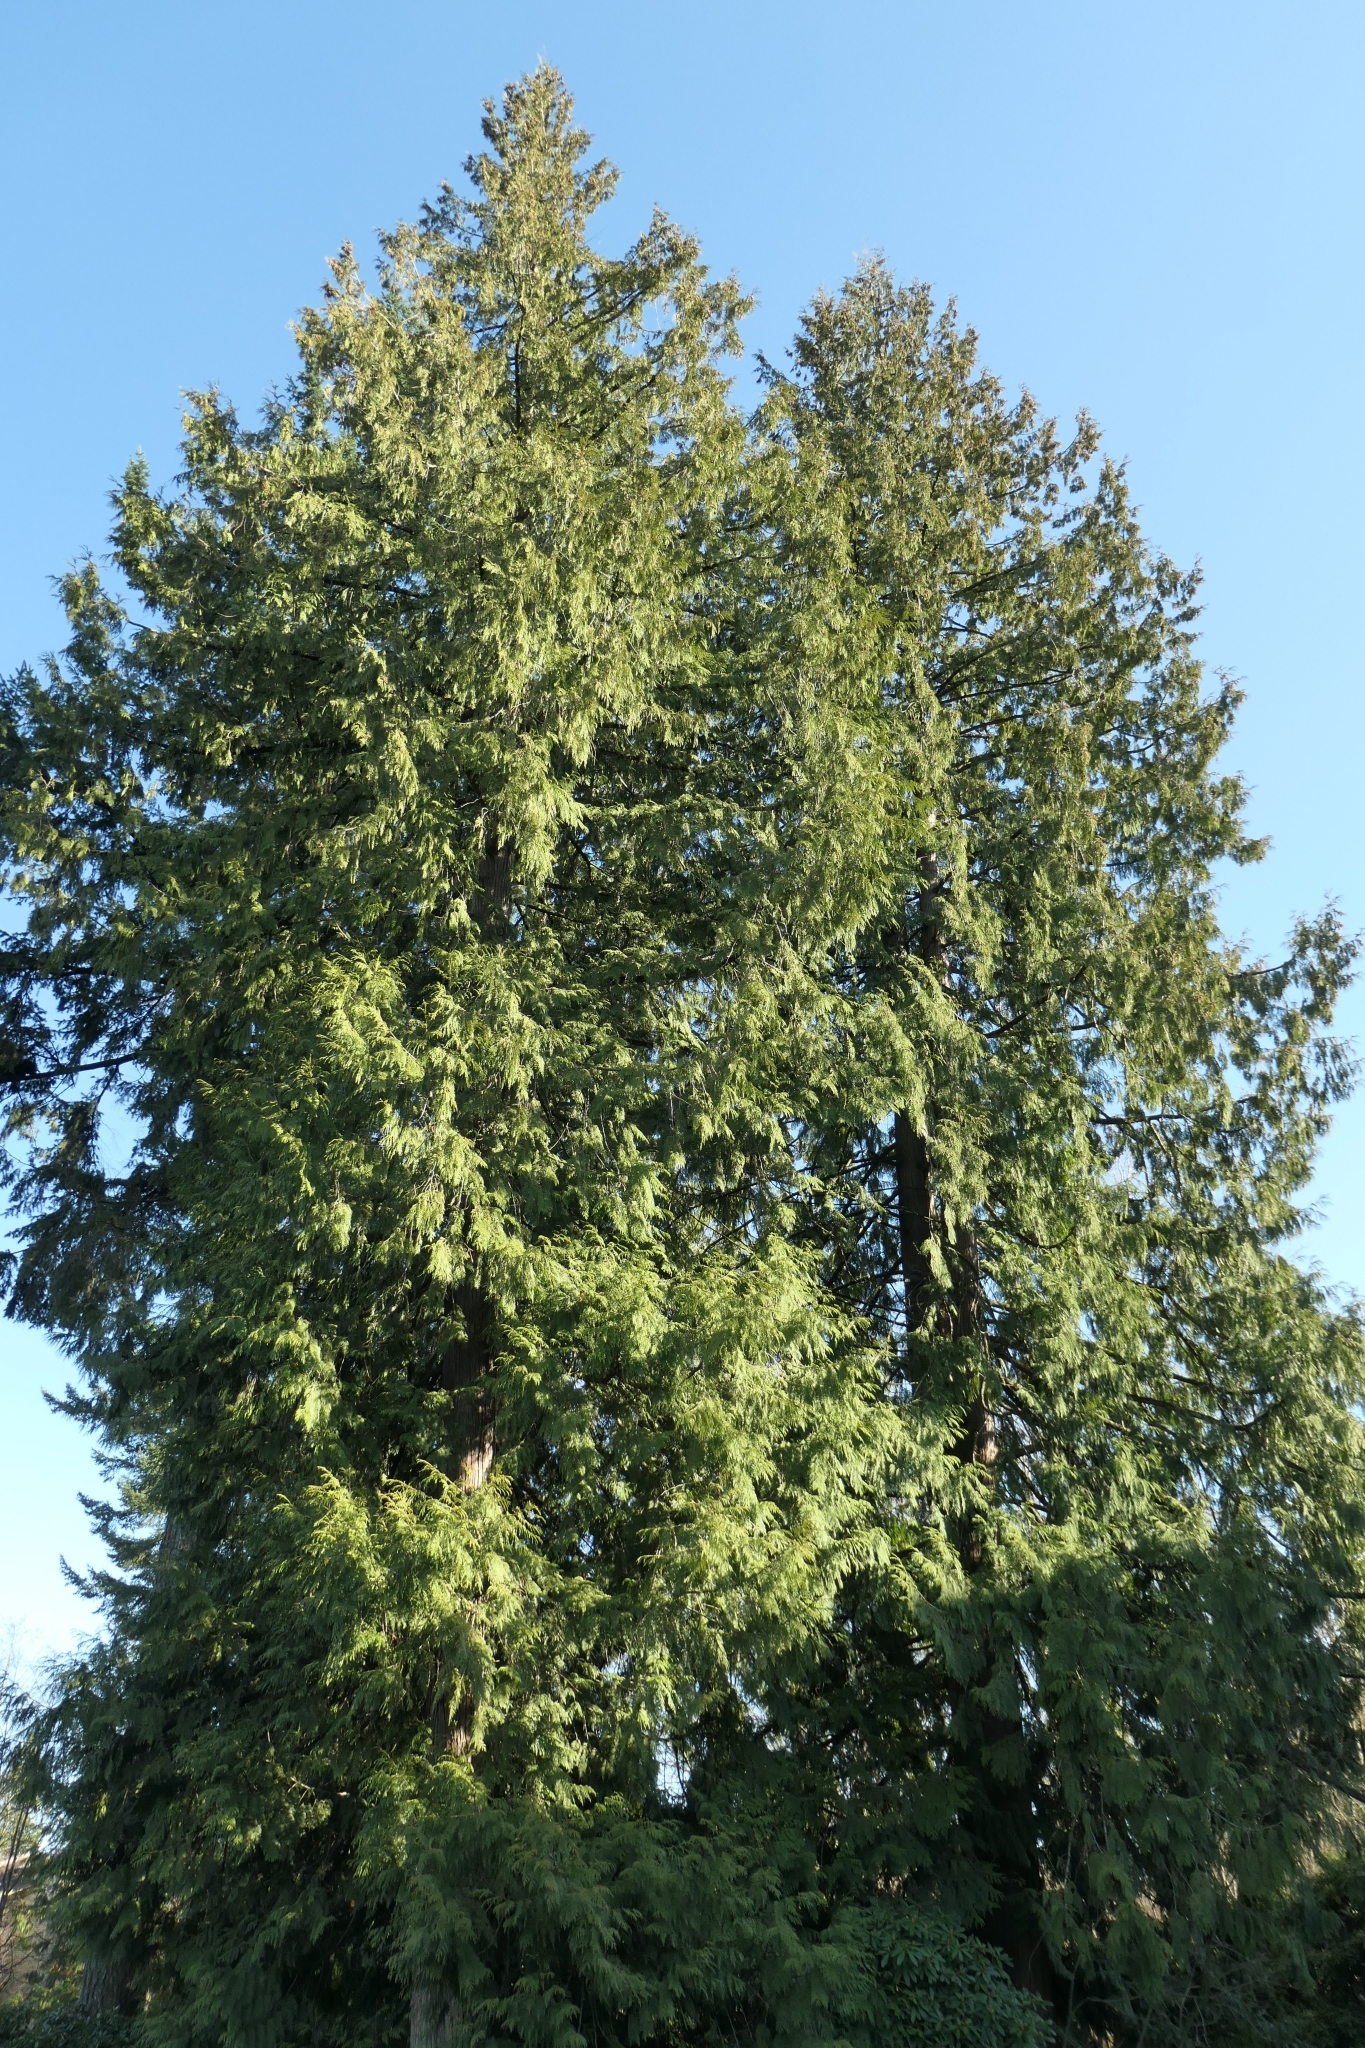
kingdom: Plantae
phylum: Tracheophyta
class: Pinopsida
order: Pinales
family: Cupressaceae
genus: Thuja
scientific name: Thuja plicata
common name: Western red-cedar
